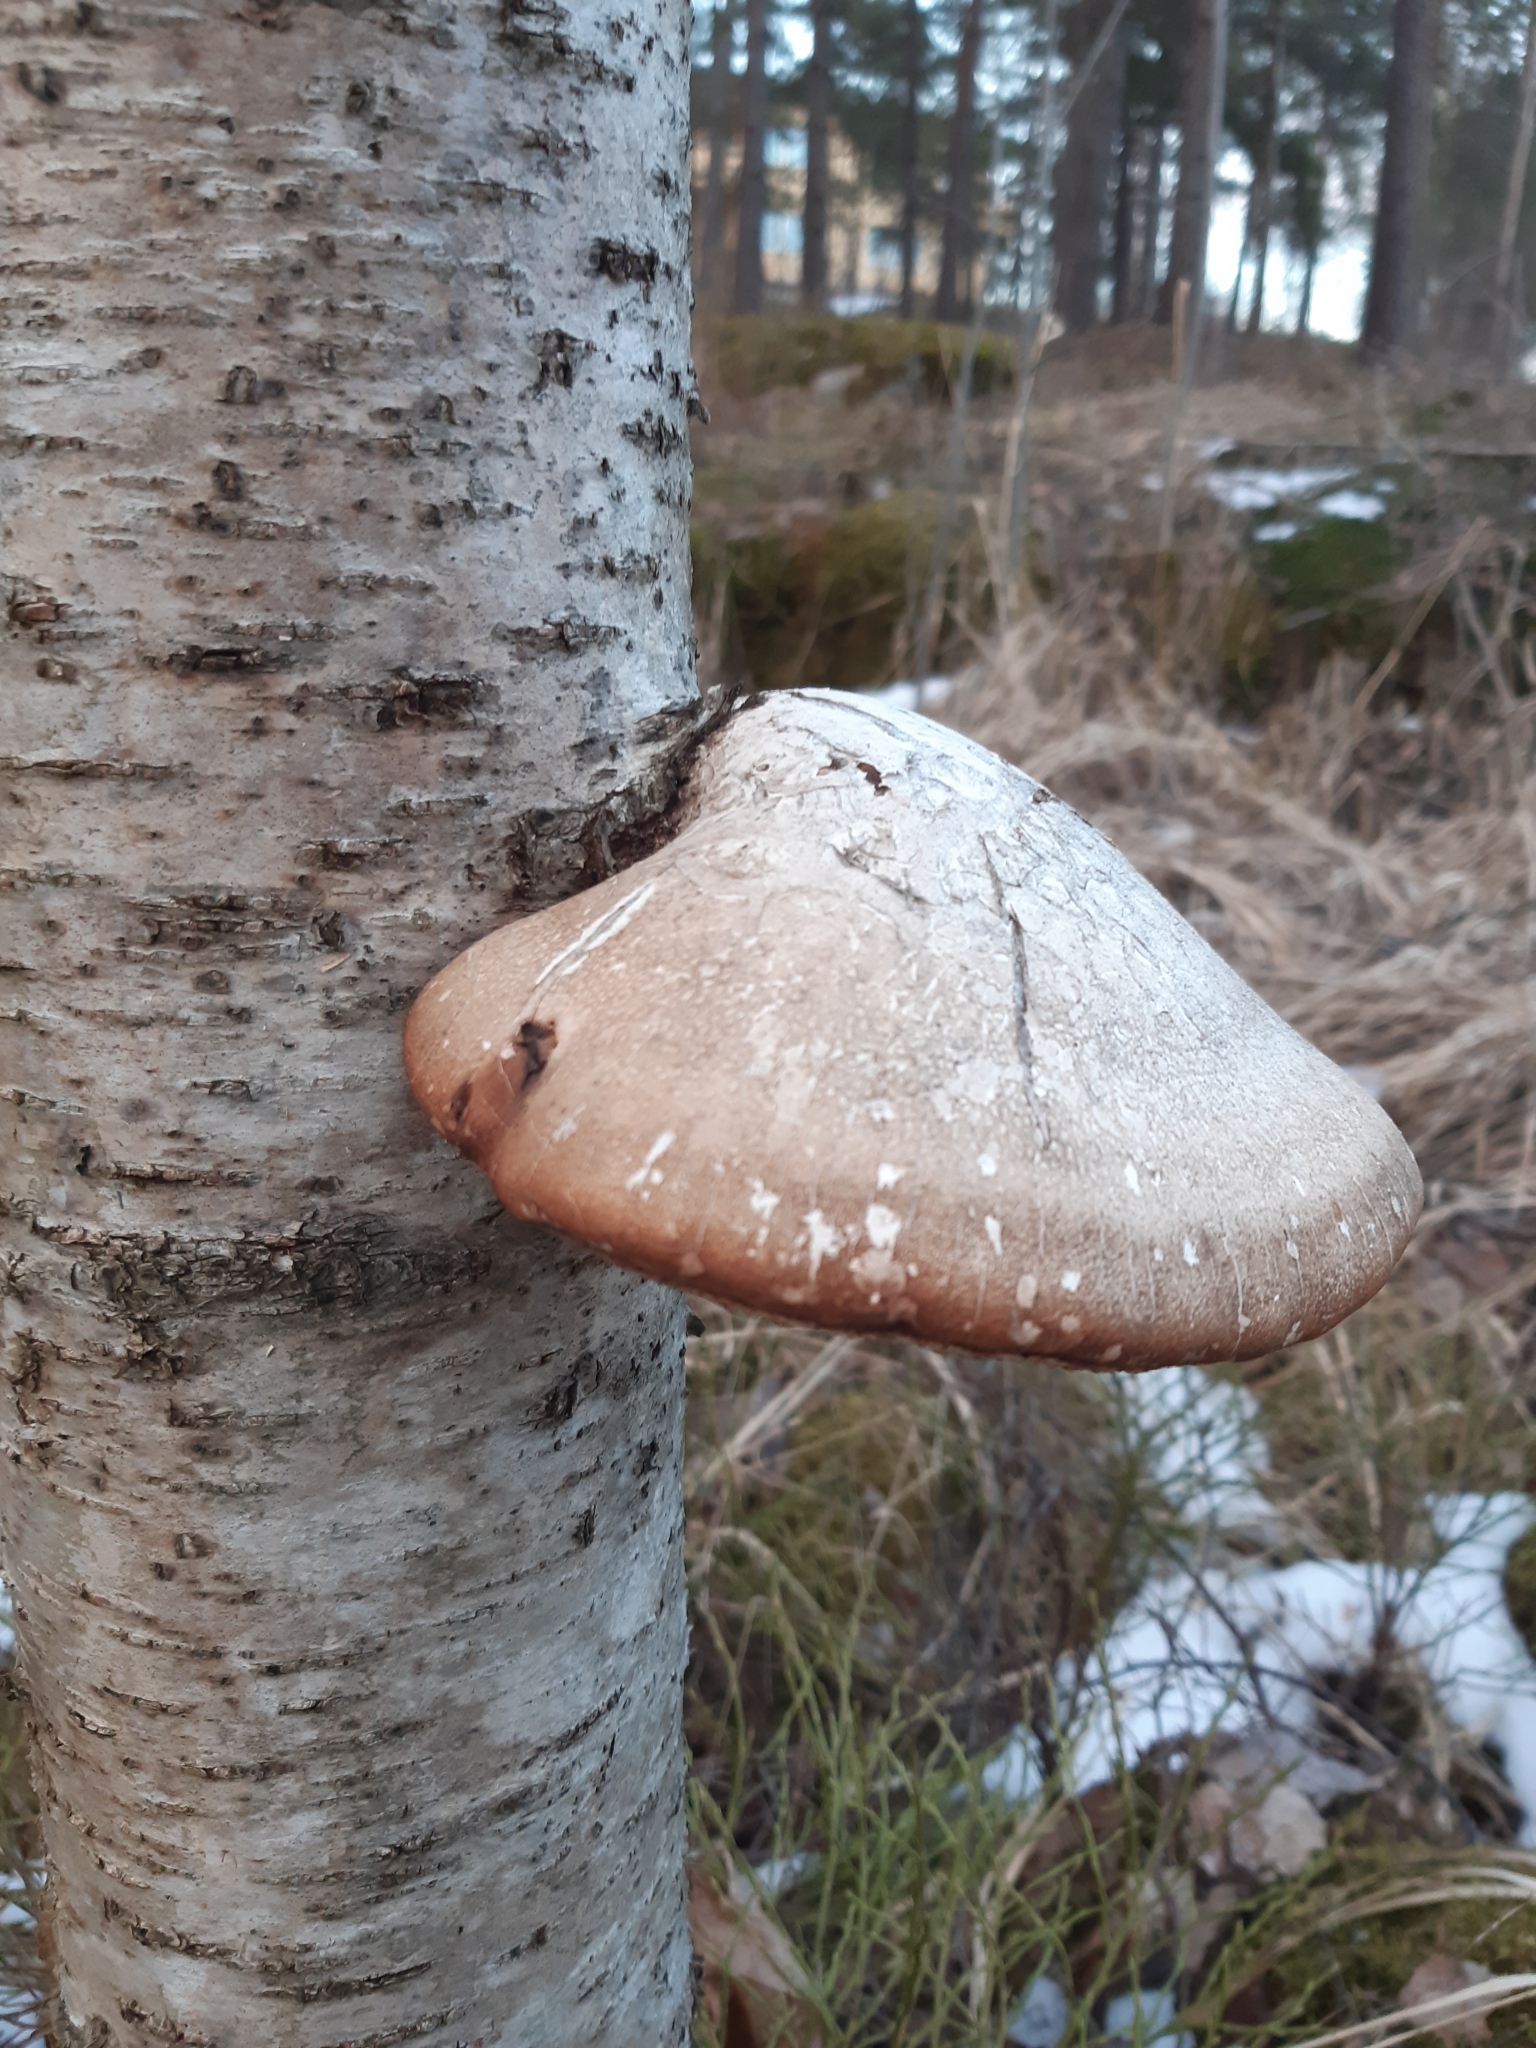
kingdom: Fungi
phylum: Basidiomycota
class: Agaricomycetes
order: Polyporales
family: Fomitopsidaceae
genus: Fomitopsis
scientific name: Fomitopsis betulina
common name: Birch polypore
